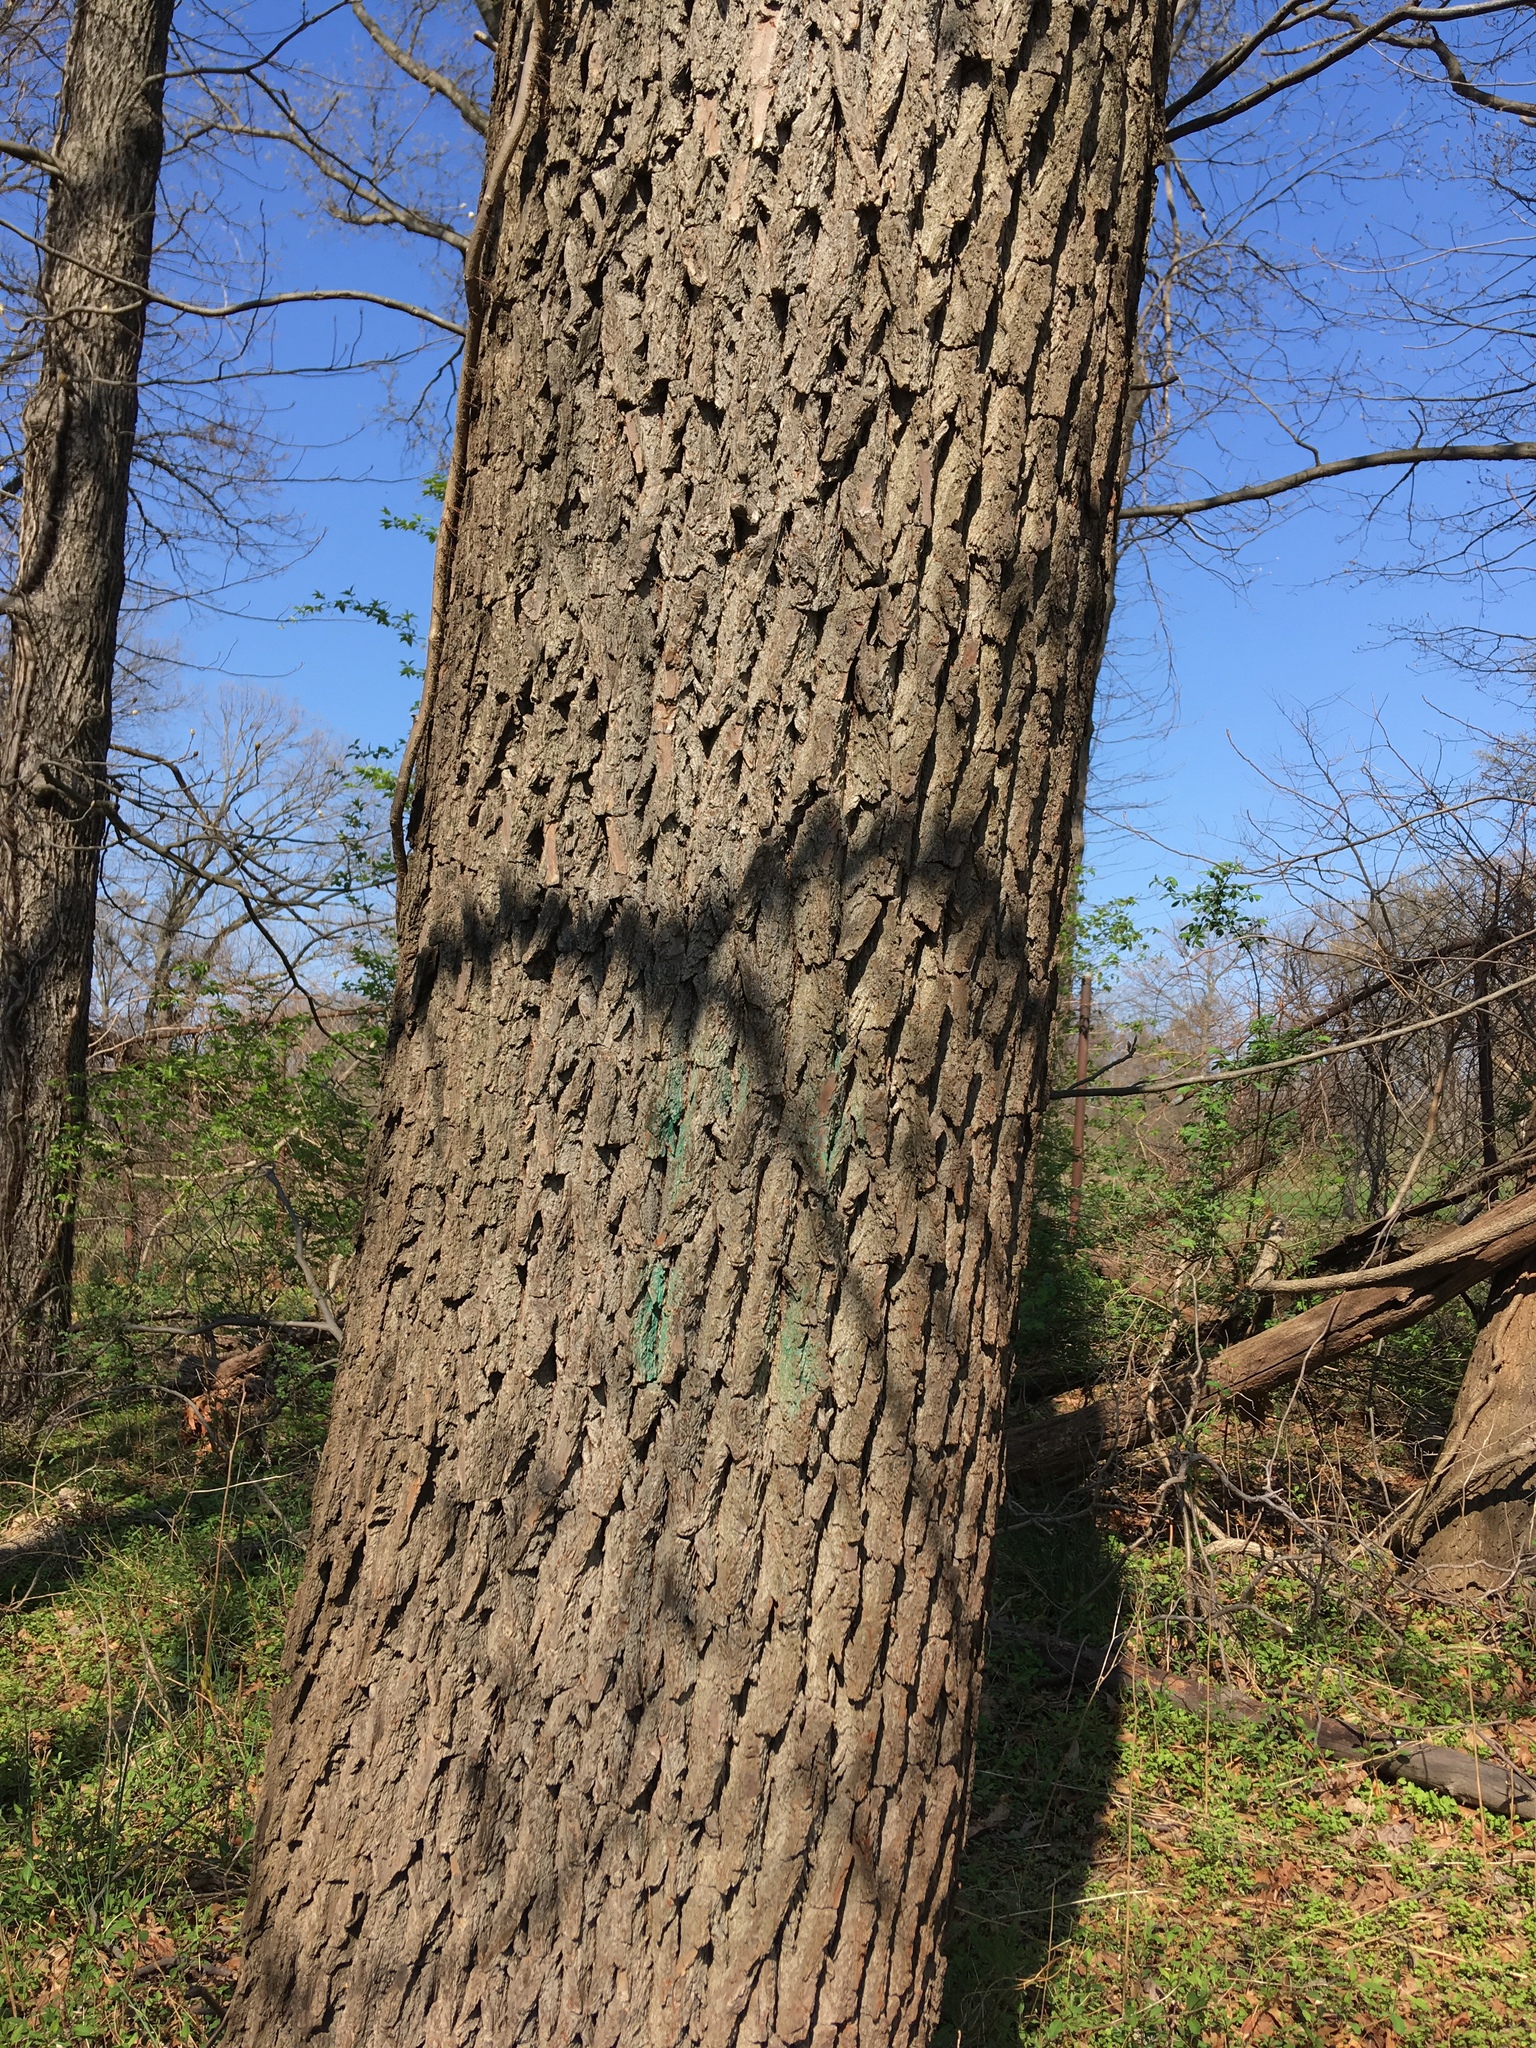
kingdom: Plantae
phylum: Tracheophyta
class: Magnoliopsida
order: Laurales
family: Lauraceae
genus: Sassafras
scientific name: Sassafras albidum
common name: Sassafras
